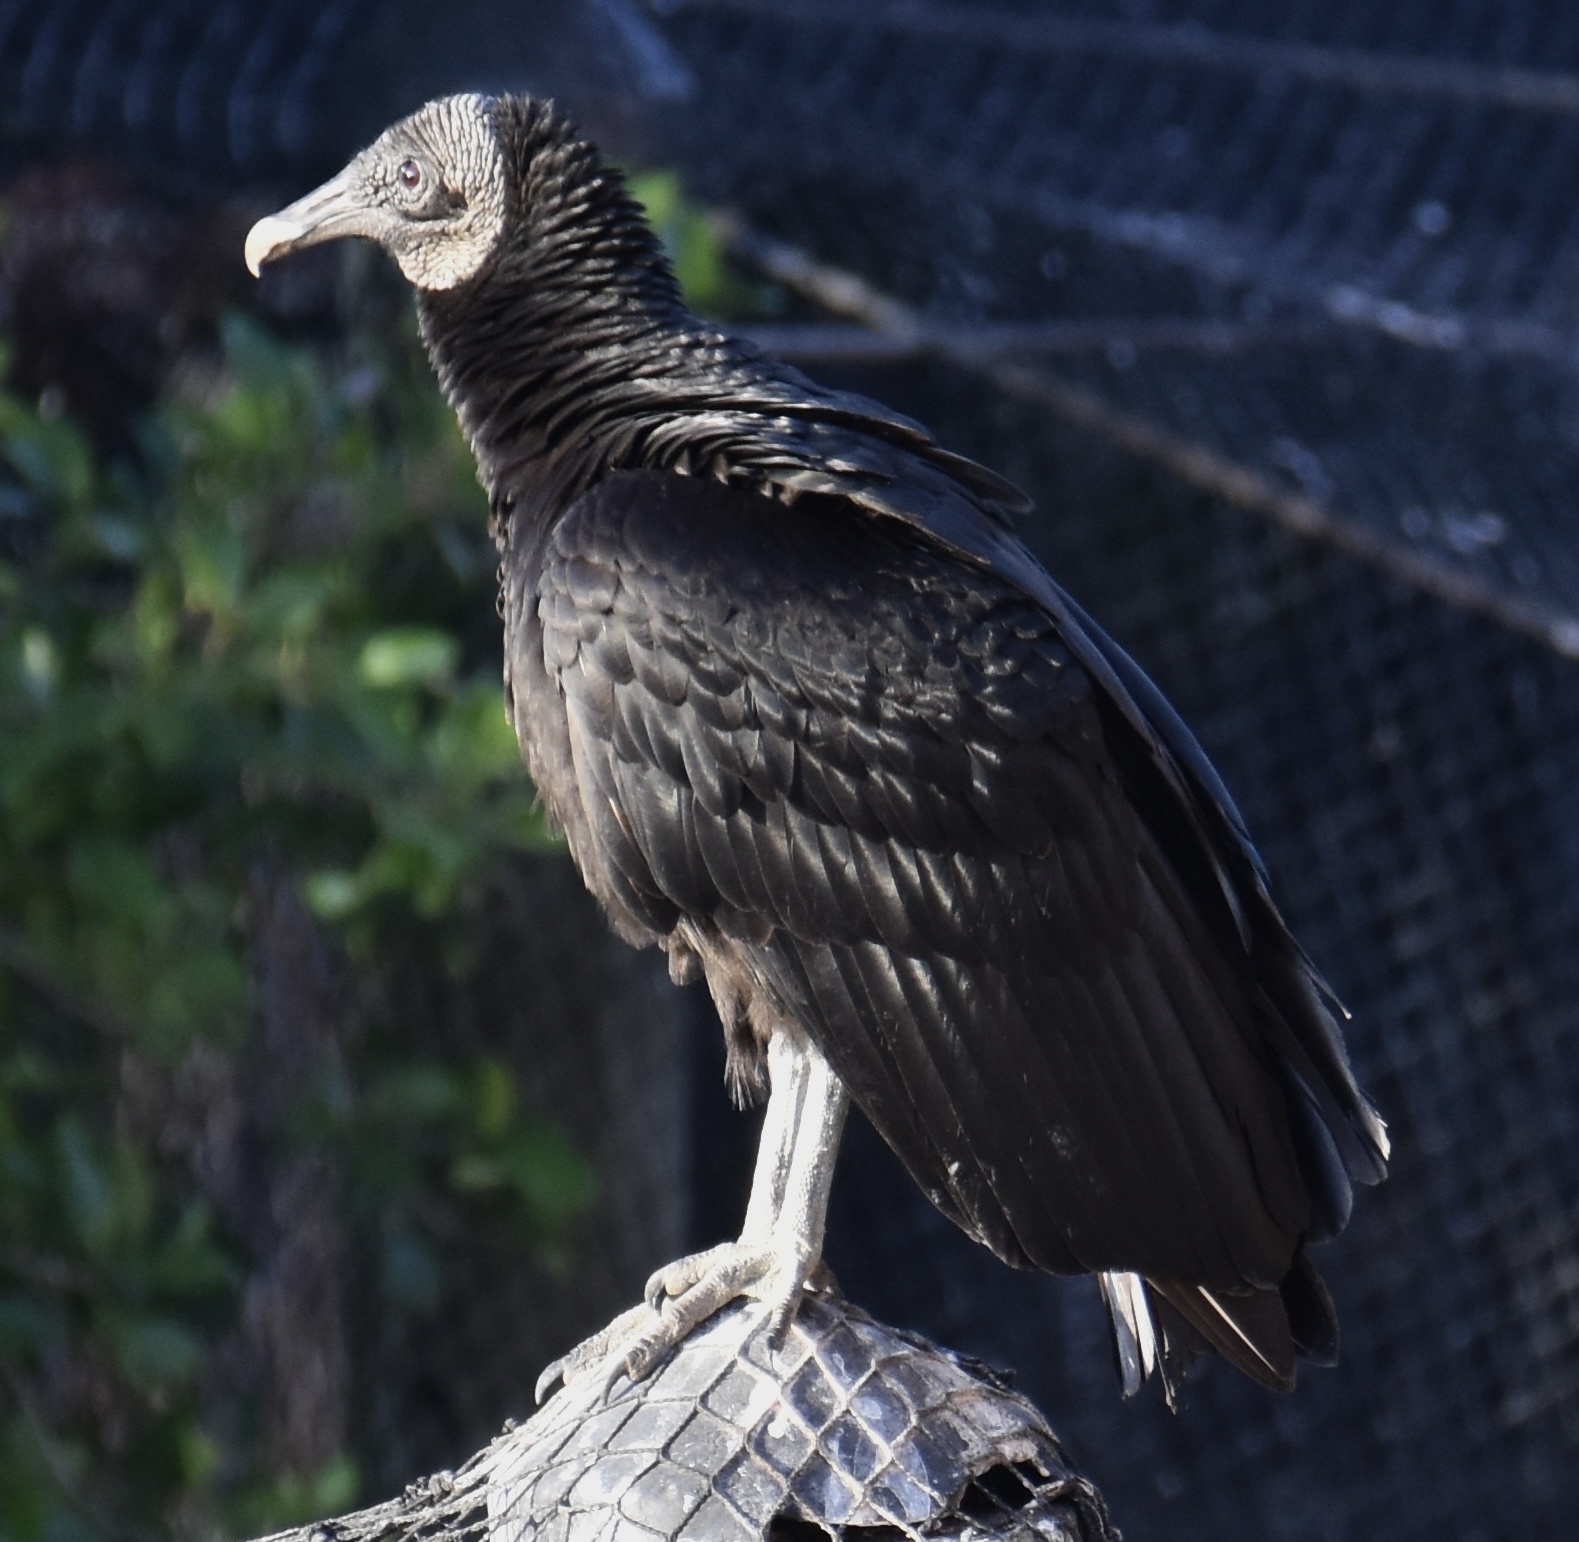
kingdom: Animalia
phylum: Chordata
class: Aves
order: Accipitriformes
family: Cathartidae
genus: Coragyps
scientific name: Coragyps atratus
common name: Black vulture
